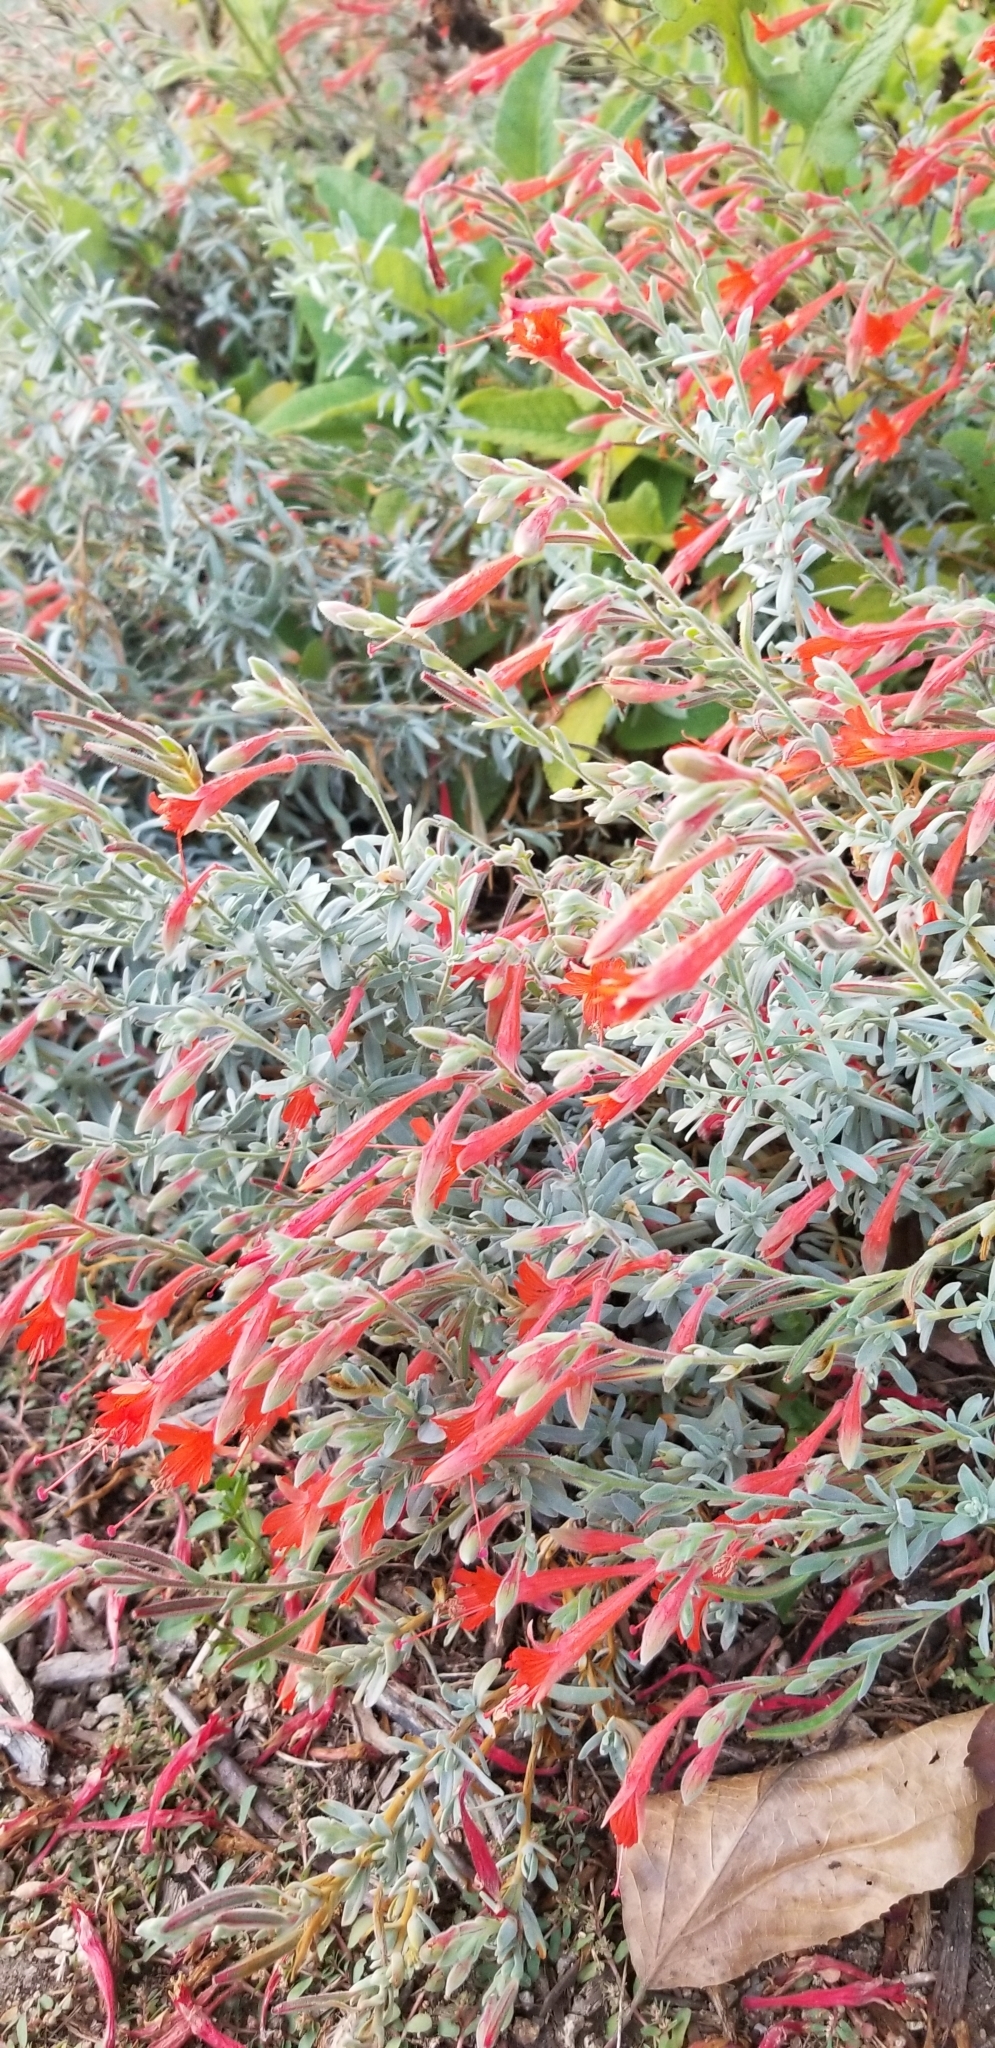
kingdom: Plantae
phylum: Tracheophyta
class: Magnoliopsida
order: Myrtales
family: Onagraceae
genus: Epilobium
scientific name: Epilobium canum
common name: California-fuchsia
